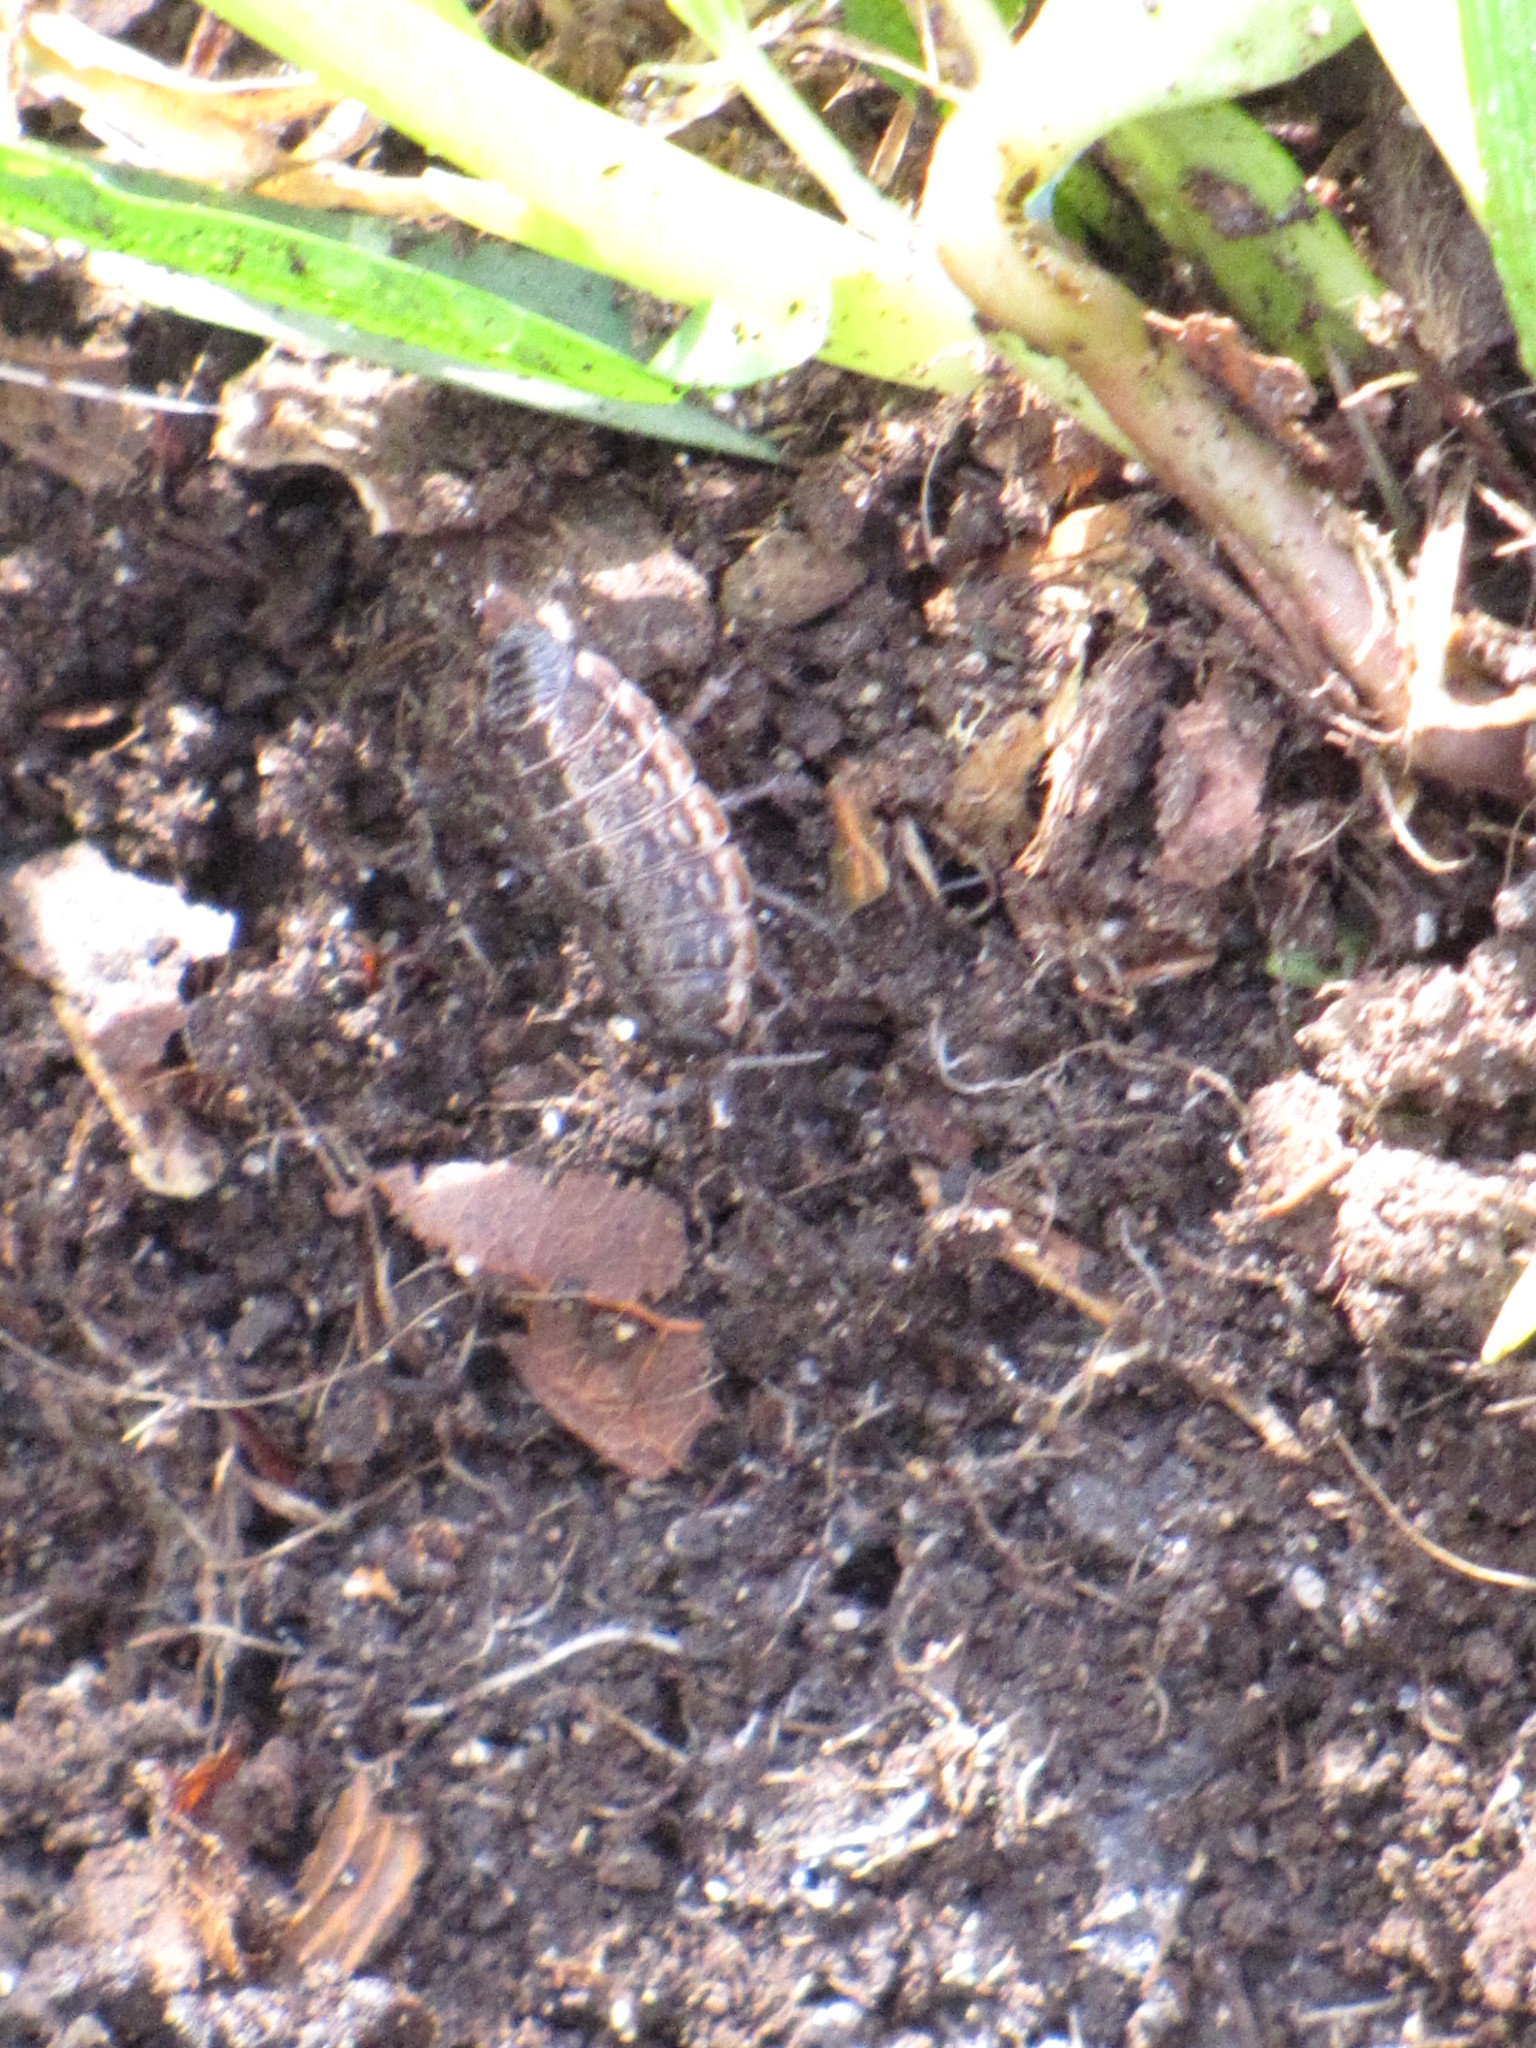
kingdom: Animalia
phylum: Arthropoda
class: Malacostraca
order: Isopoda
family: Philosciidae
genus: Philoscia
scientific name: Philoscia muscorum
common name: Common striped woodlouse
